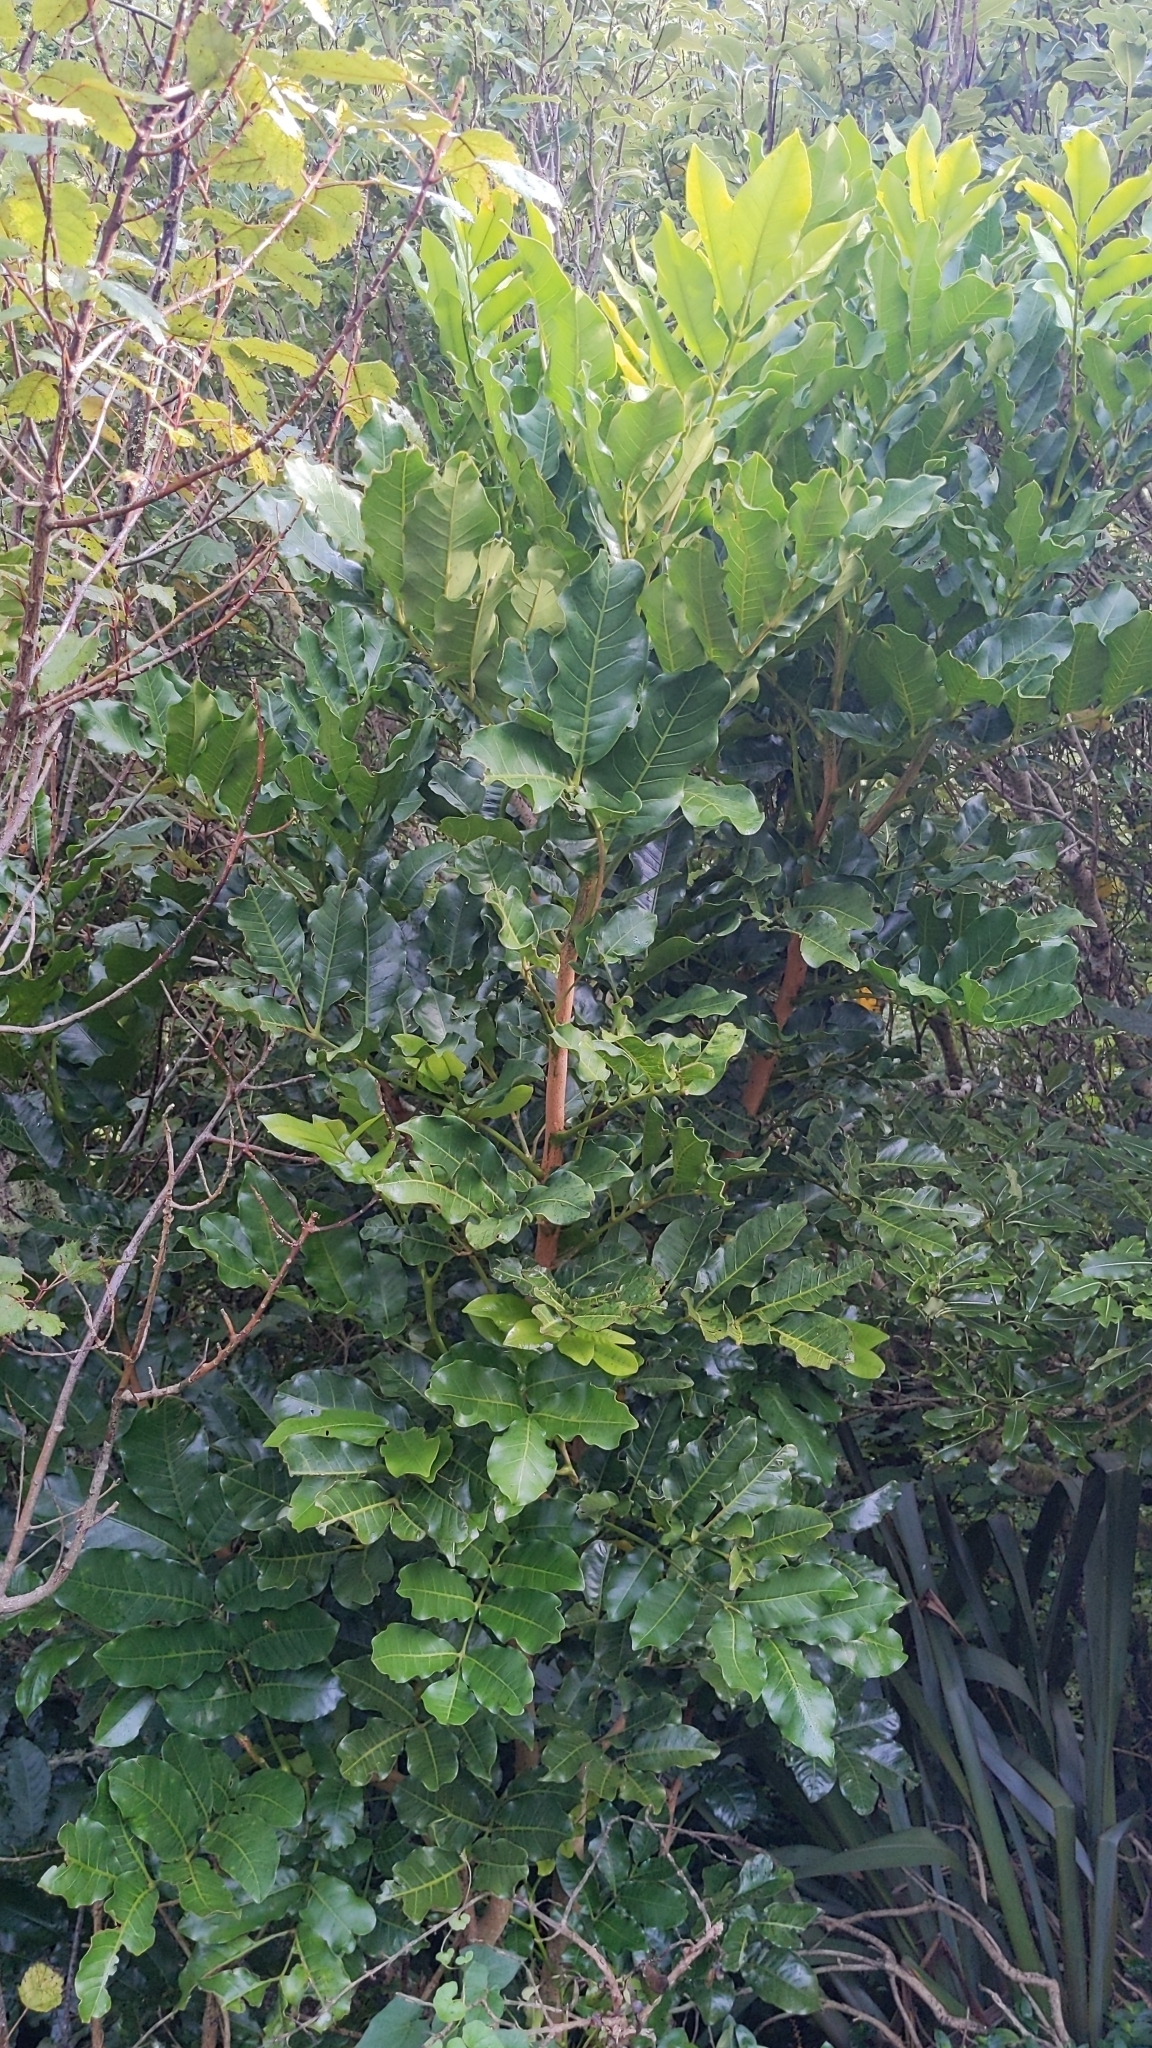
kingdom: Plantae
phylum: Tracheophyta
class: Magnoliopsida
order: Sapindales
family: Meliaceae
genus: Didymocheton
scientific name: Didymocheton spectabilis
